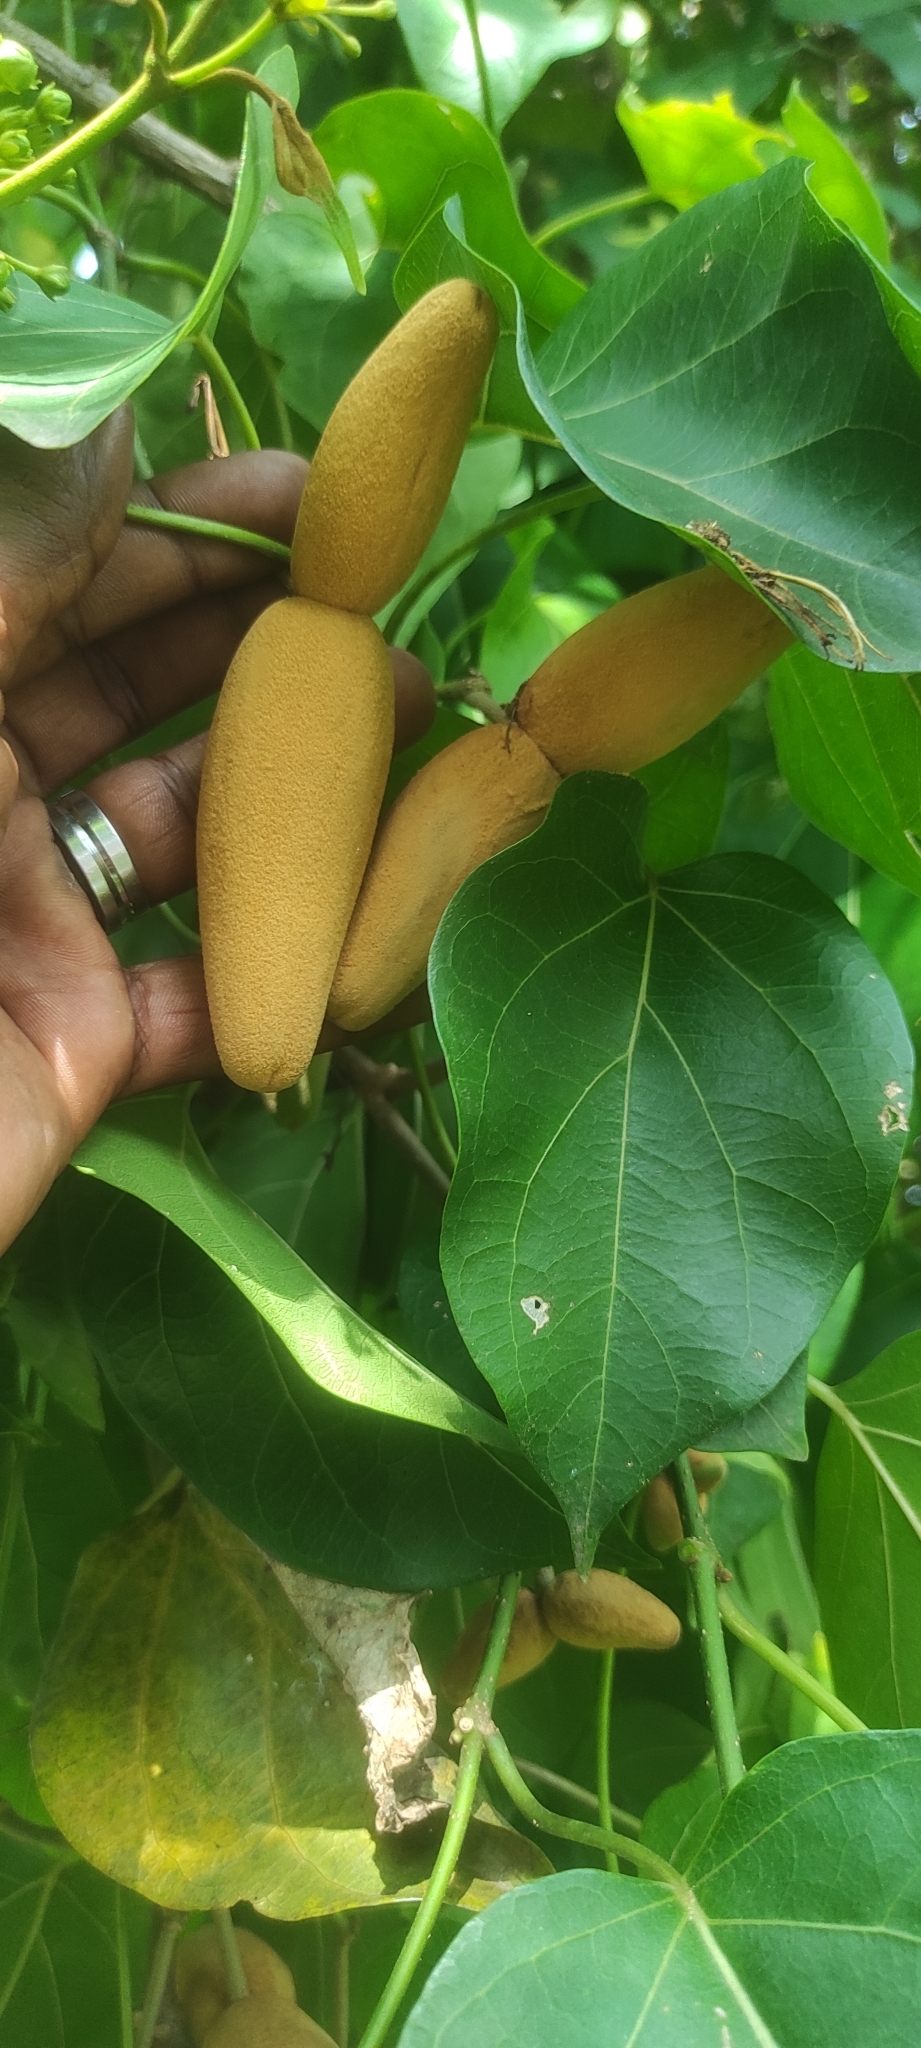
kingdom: Plantae
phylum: Tracheophyta
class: Magnoliopsida
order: Gentianales
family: Apocynaceae
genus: Stephanotis
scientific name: Stephanotis volubilis
